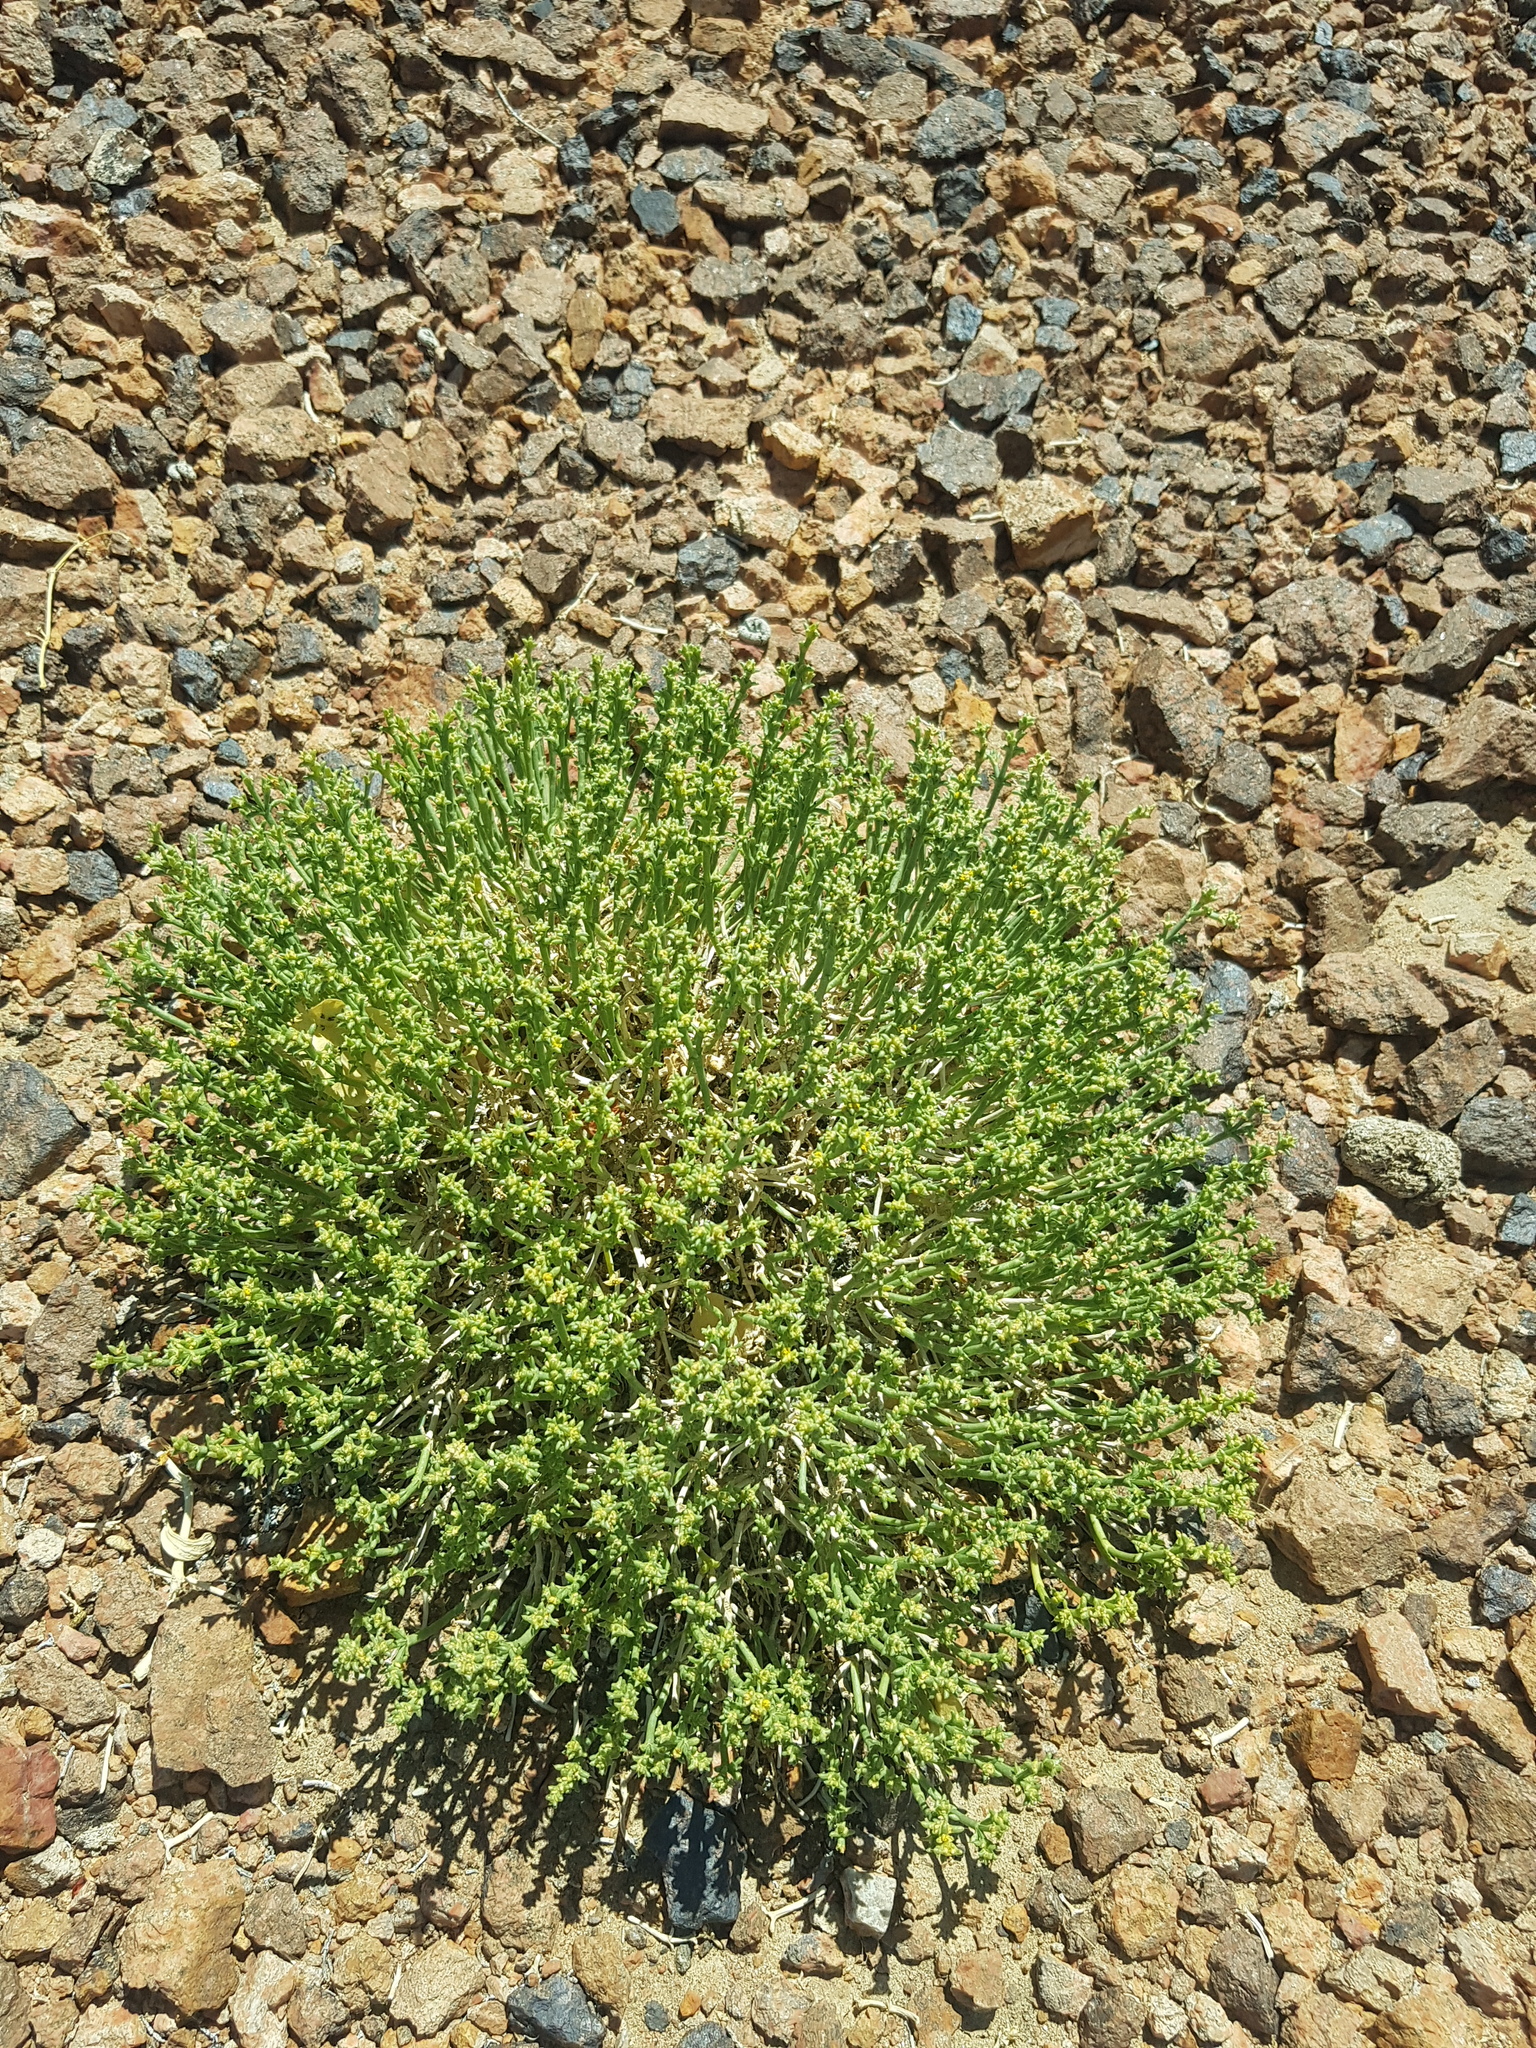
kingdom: Plantae
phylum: Tracheophyta
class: Magnoliopsida
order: Caryophyllales
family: Amaranthaceae
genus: Anabasis
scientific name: Anabasis brevifolia
